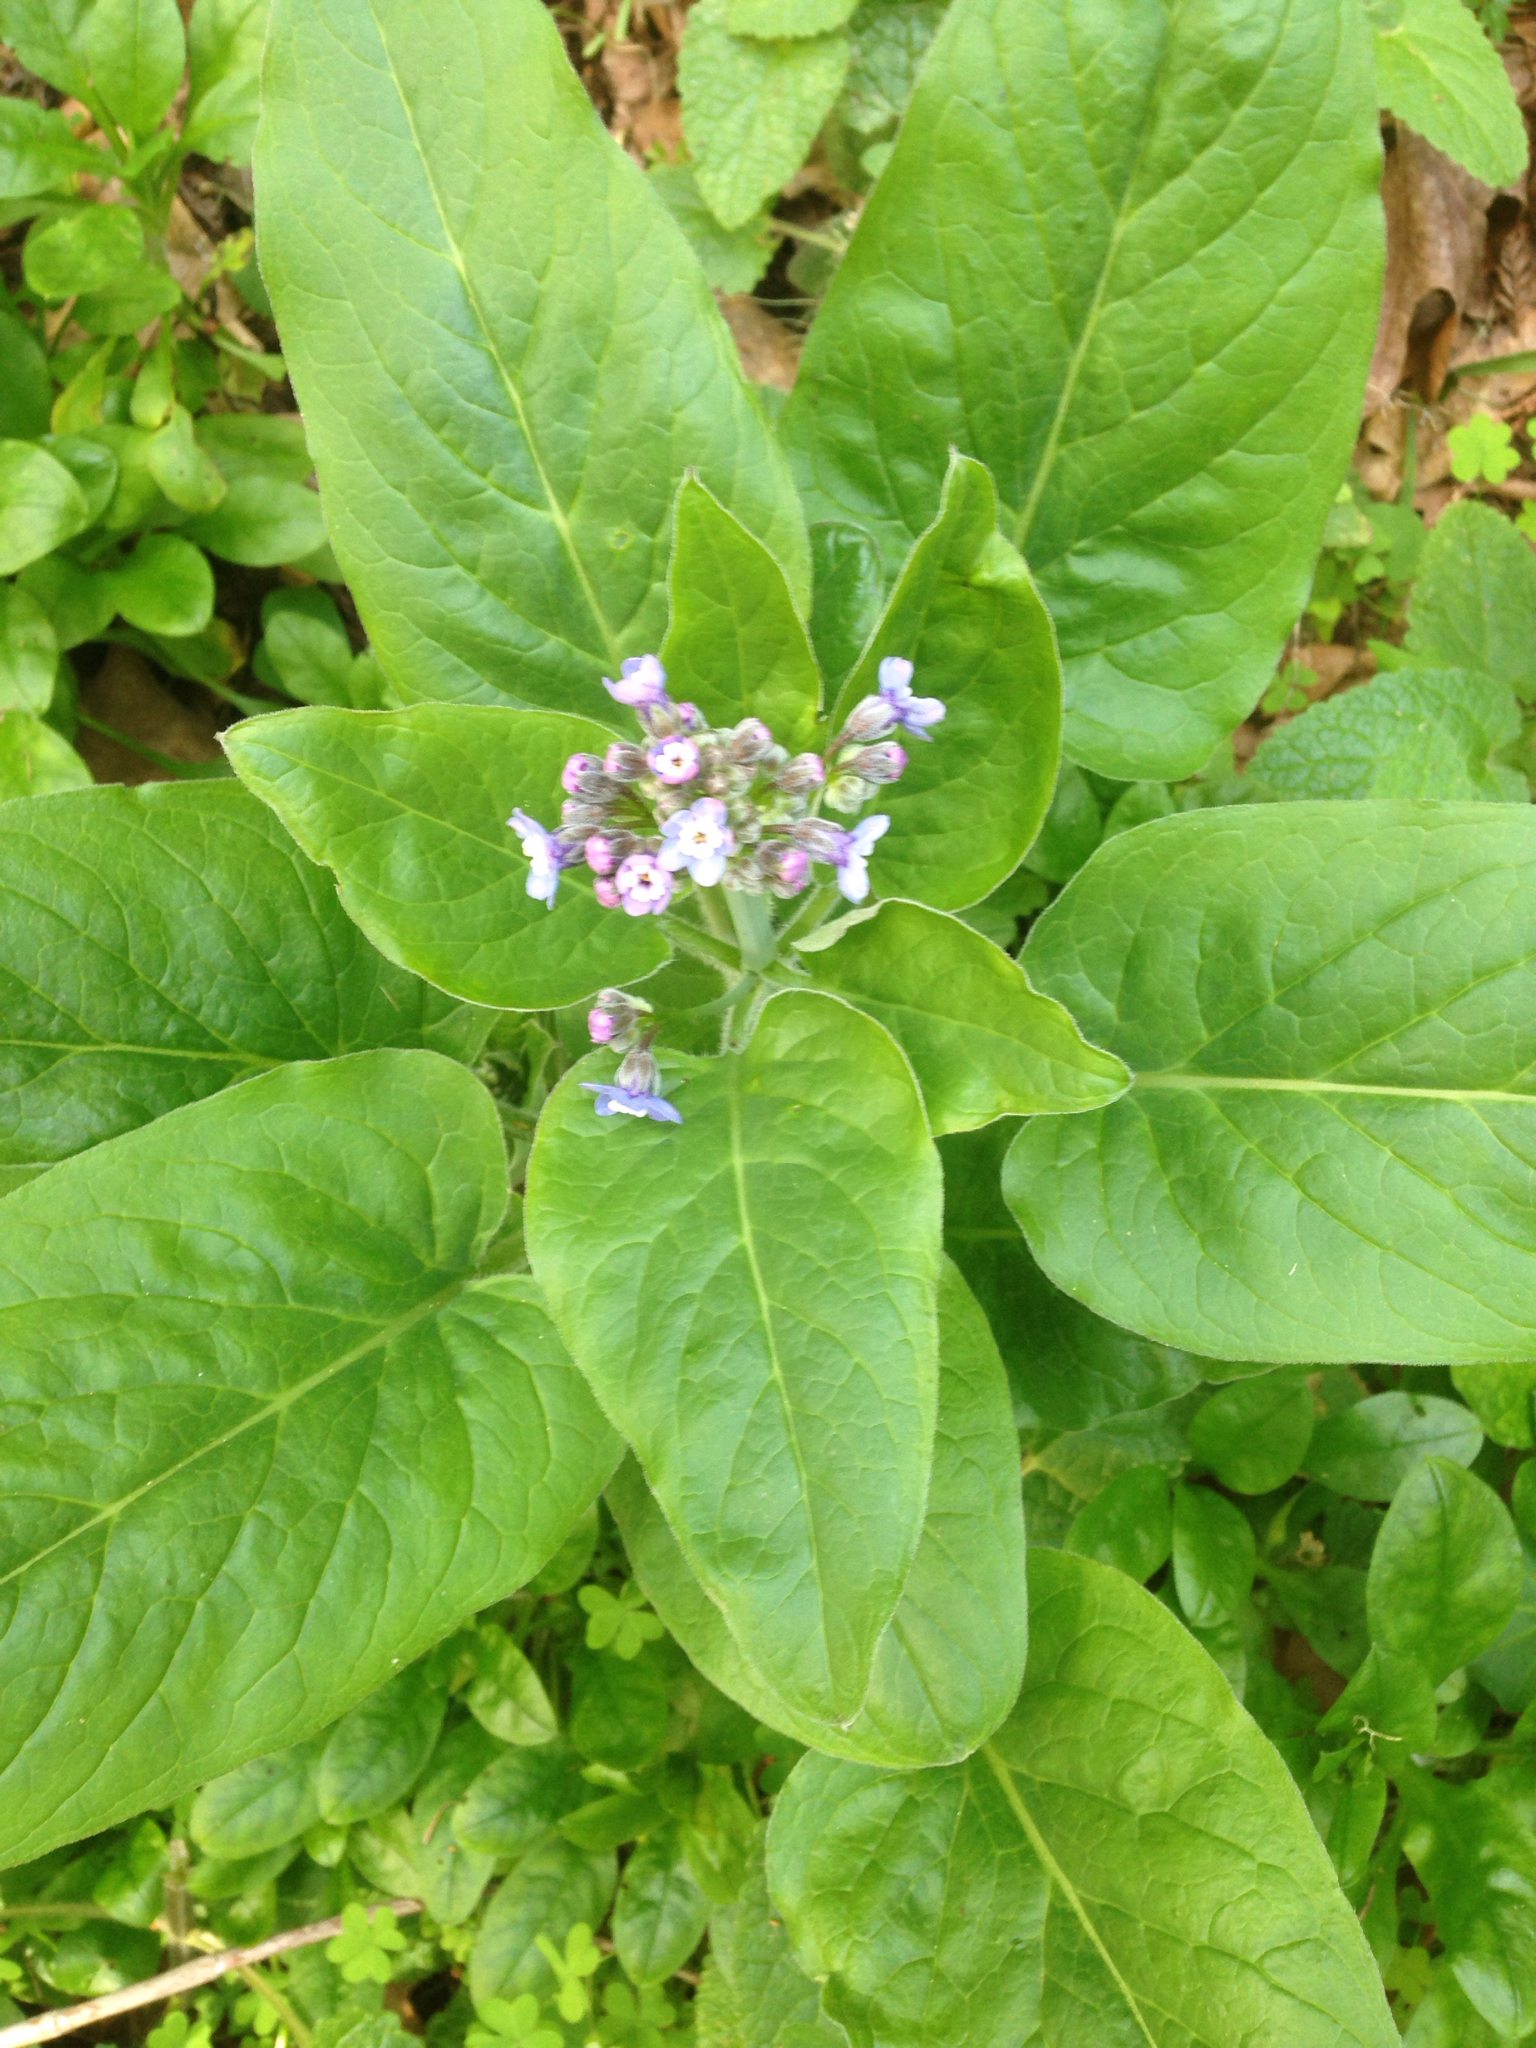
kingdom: Plantae
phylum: Tracheophyta
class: Magnoliopsida
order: Boraginales
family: Boraginaceae
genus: Adelinia
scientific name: Adelinia grande
